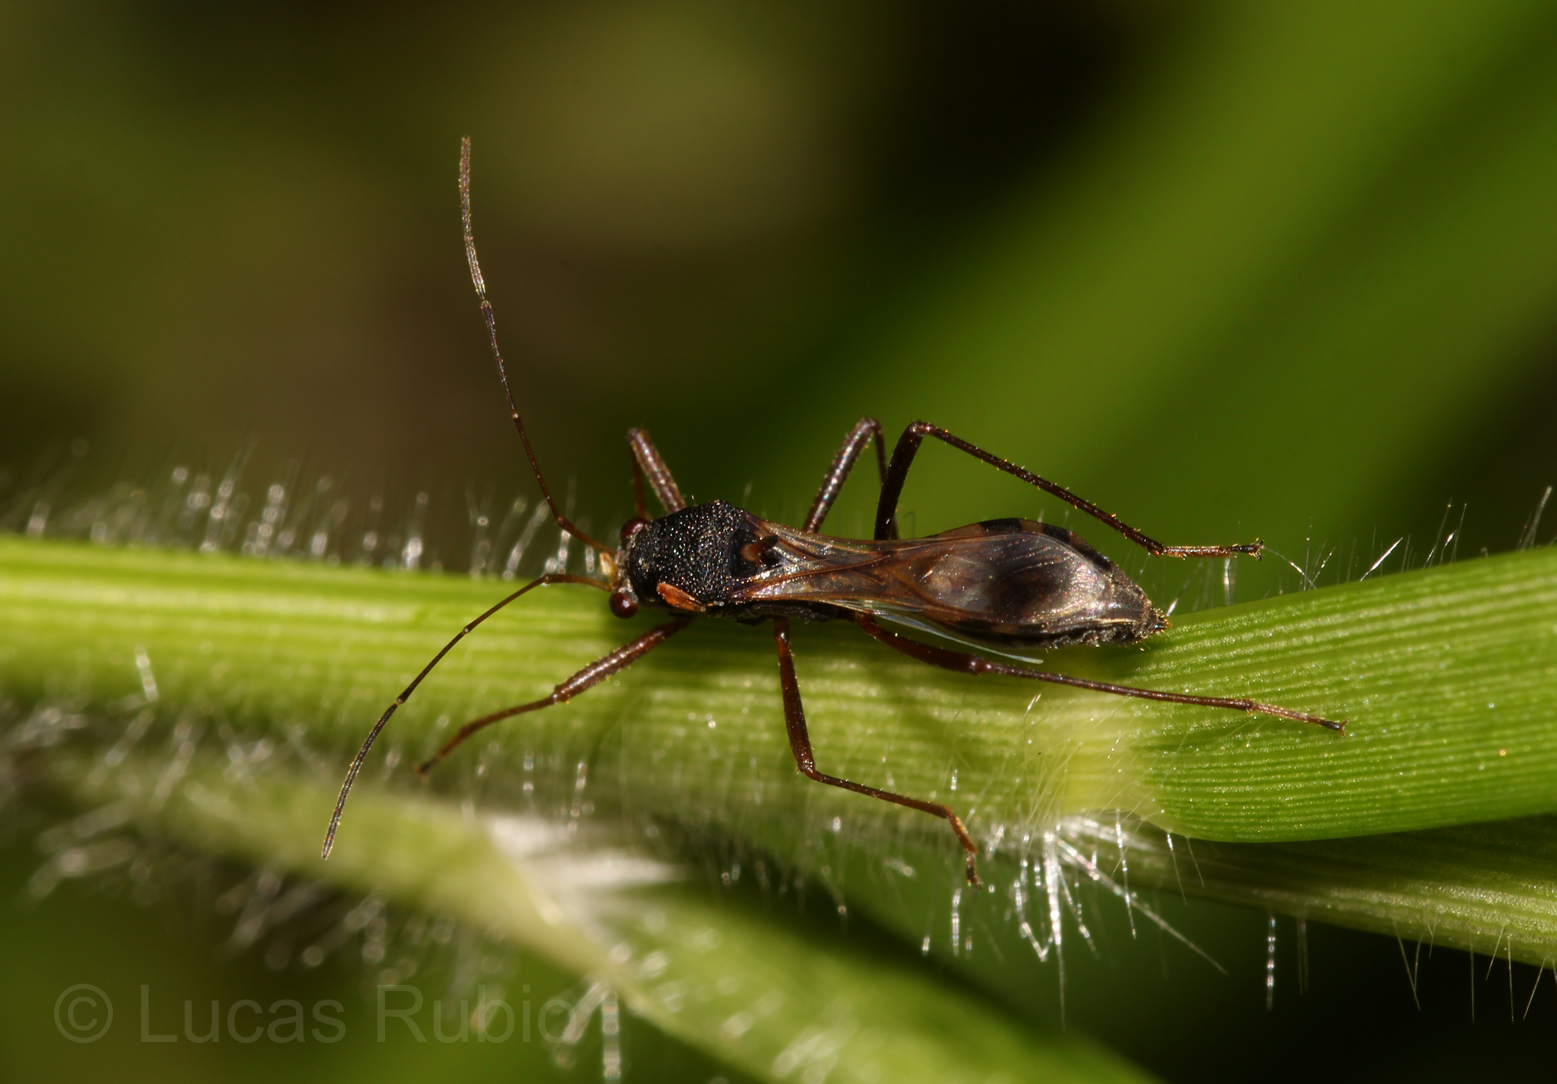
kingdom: Animalia
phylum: Arthropoda
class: Insecta
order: Hemiptera
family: Colobathristidae
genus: Trichocentrus
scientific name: Trichocentrus vianai
